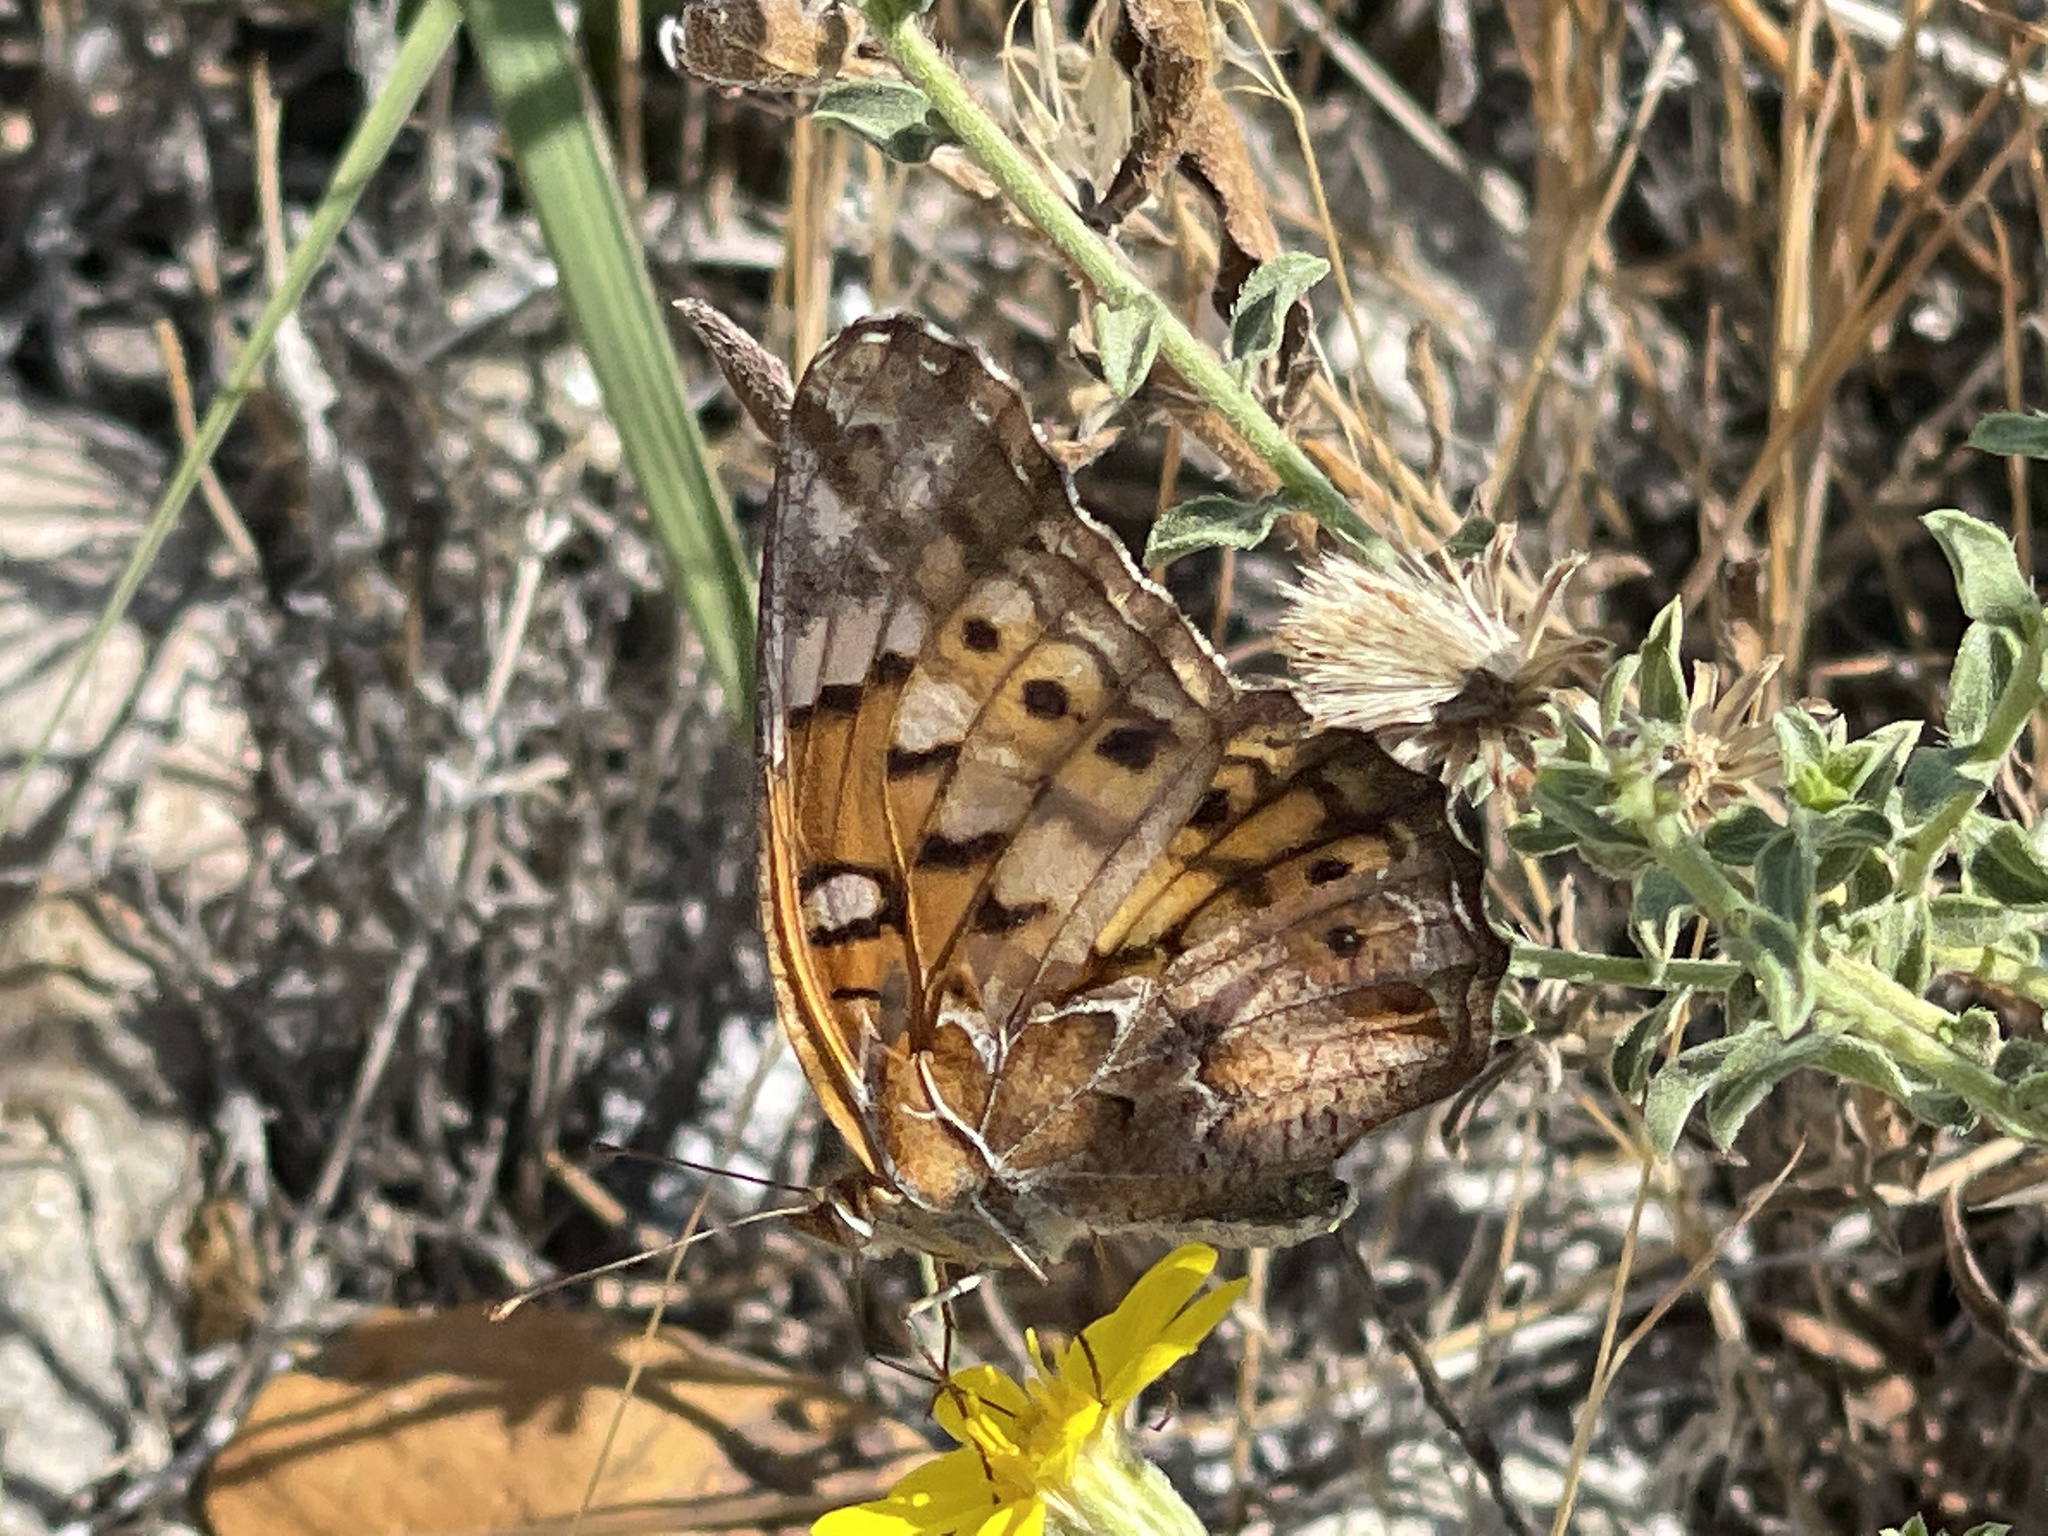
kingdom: Animalia
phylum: Arthropoda
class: Insecta
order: Lepidoptera
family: Nymphalidae
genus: Euptoieta
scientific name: Euptoieta claudia
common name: Variegated fritillary
